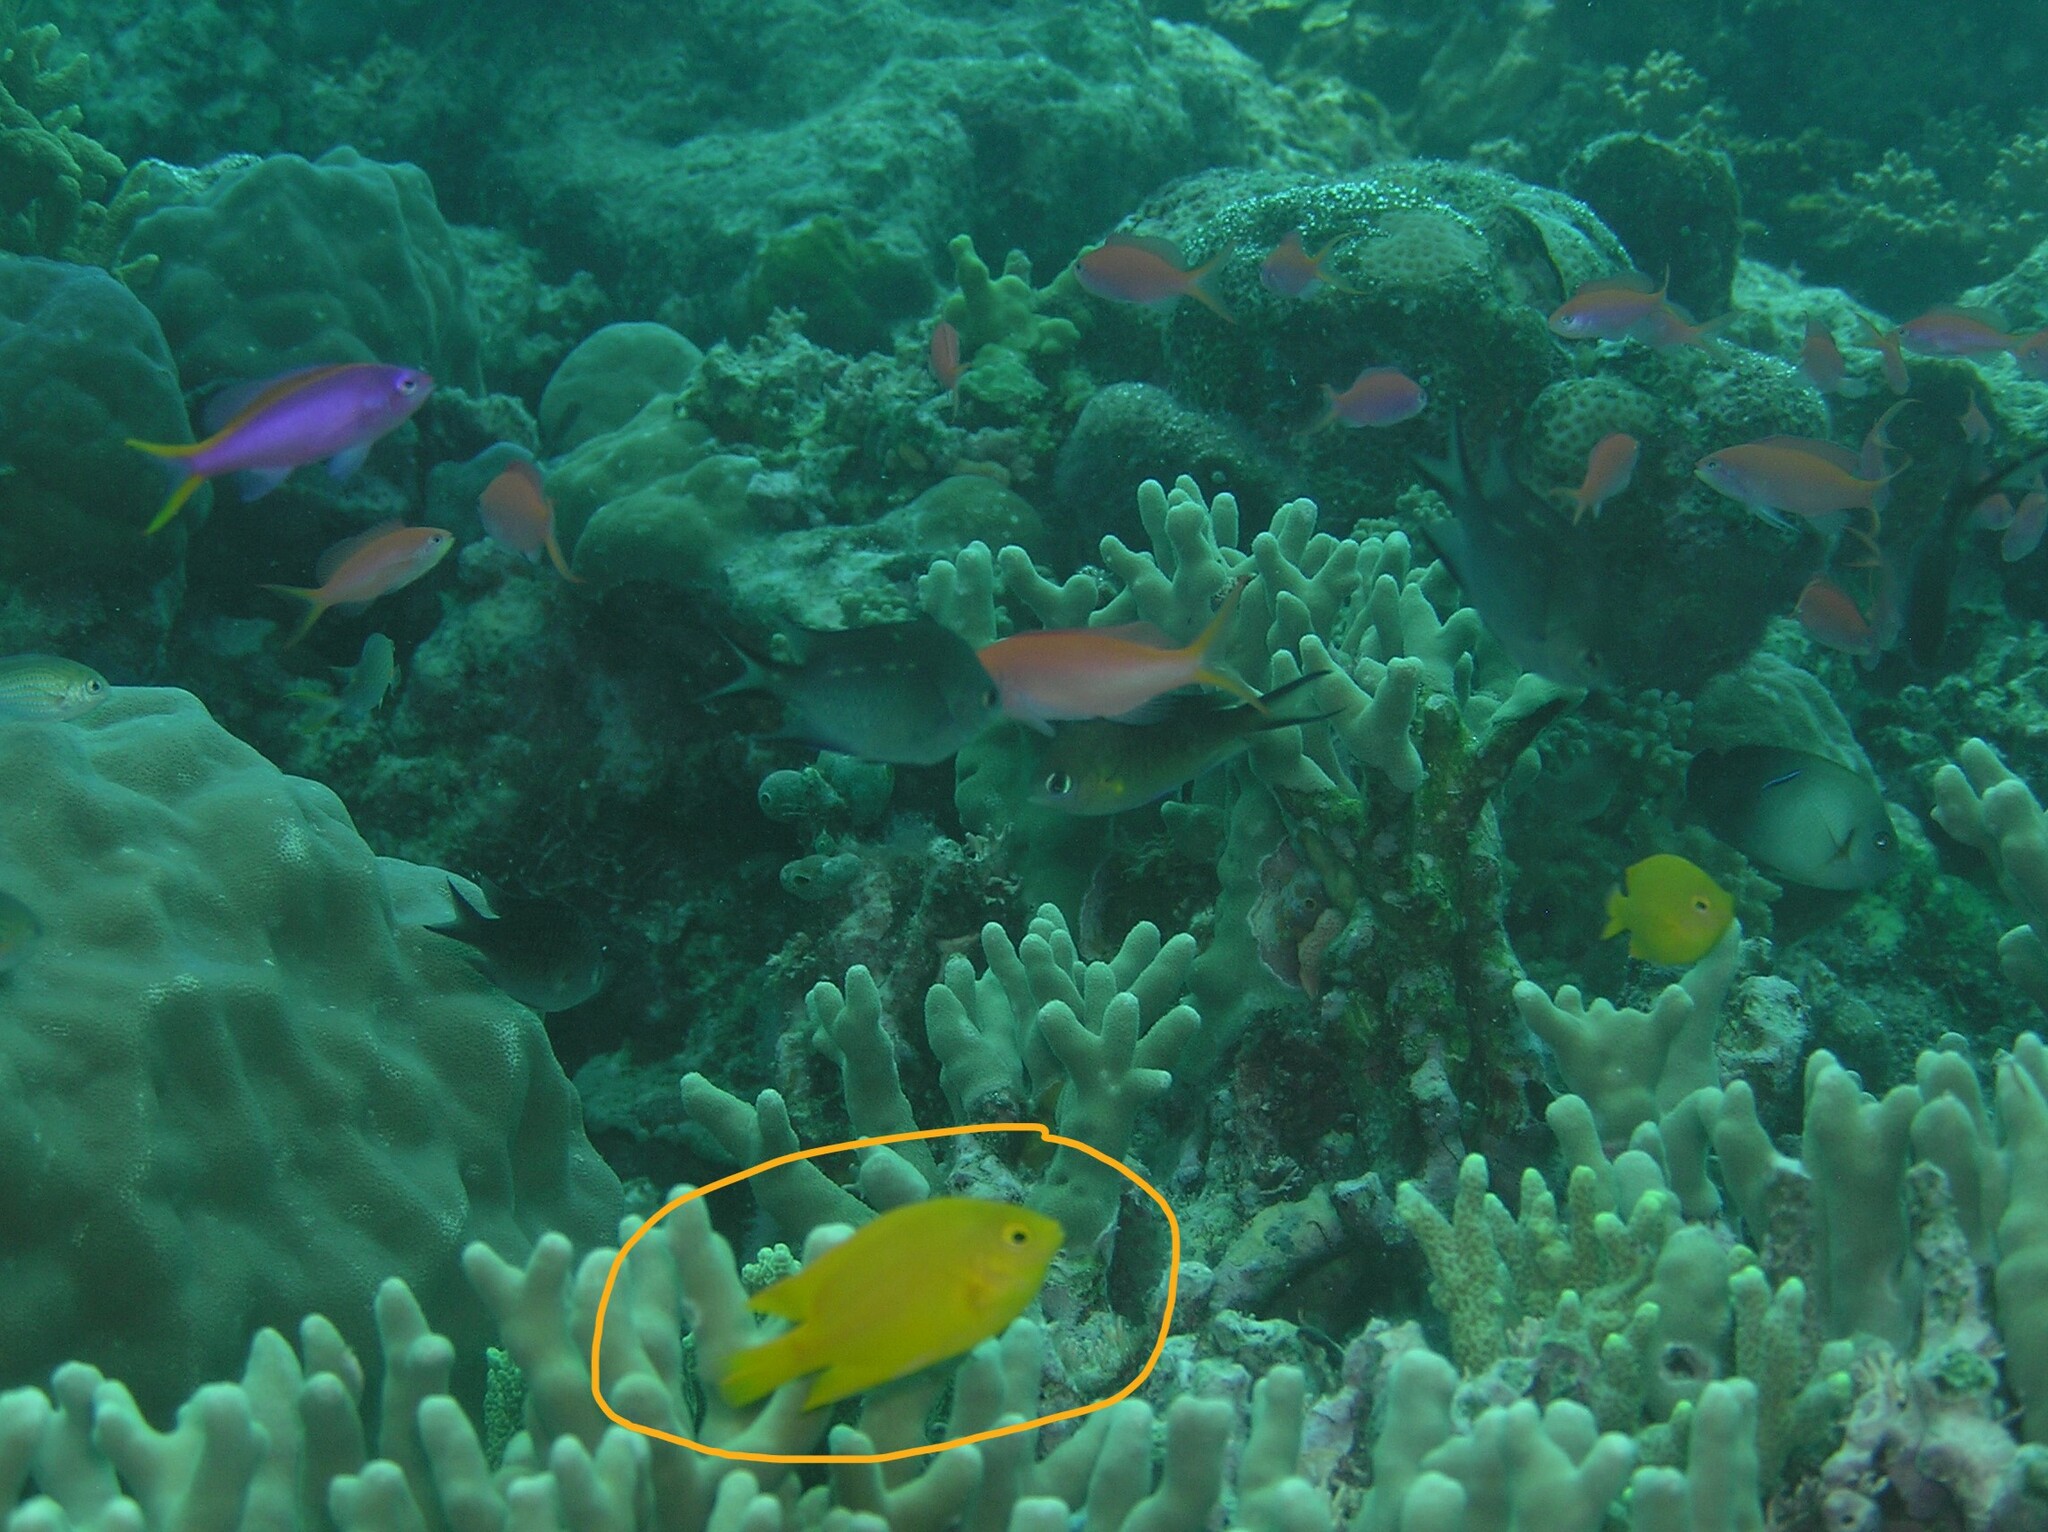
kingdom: Animalia
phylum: Chordata
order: Perciformes
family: Pomacentridae
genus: Pomacentrus
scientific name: Pomacentrus moluccensis
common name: Lemon damsel
